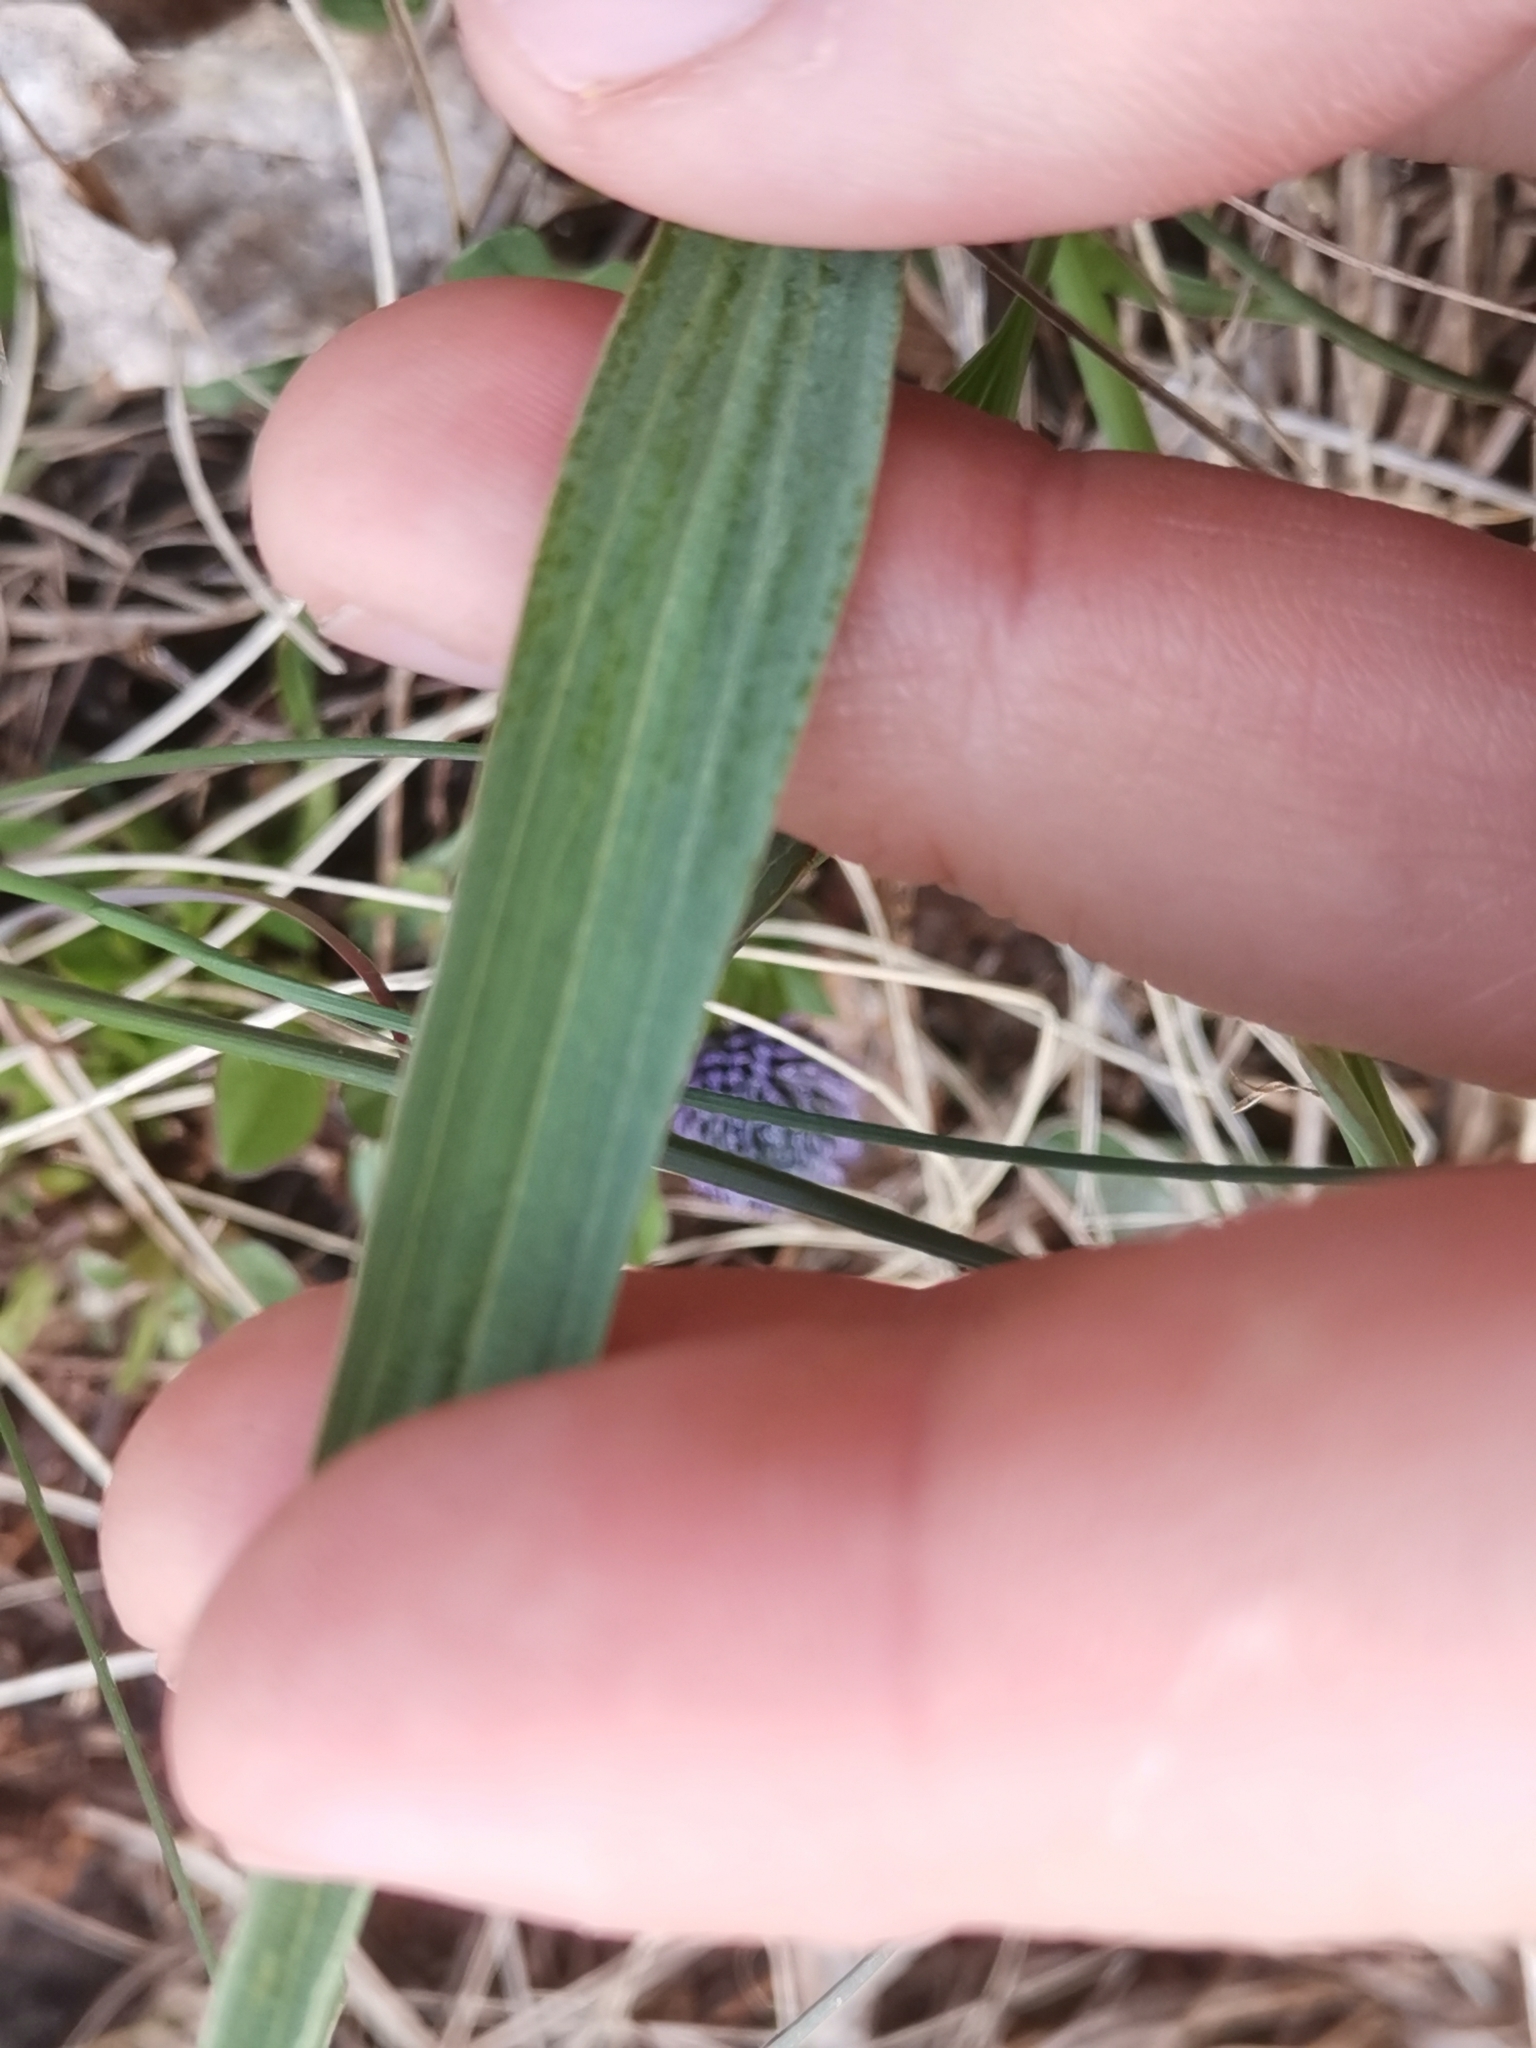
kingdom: Plantae
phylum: Tracheophyta
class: Magnoliopsida
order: Asterales
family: Asteraceae
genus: Takhtajaniantha
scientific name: Takhtajaniantha austriaca
